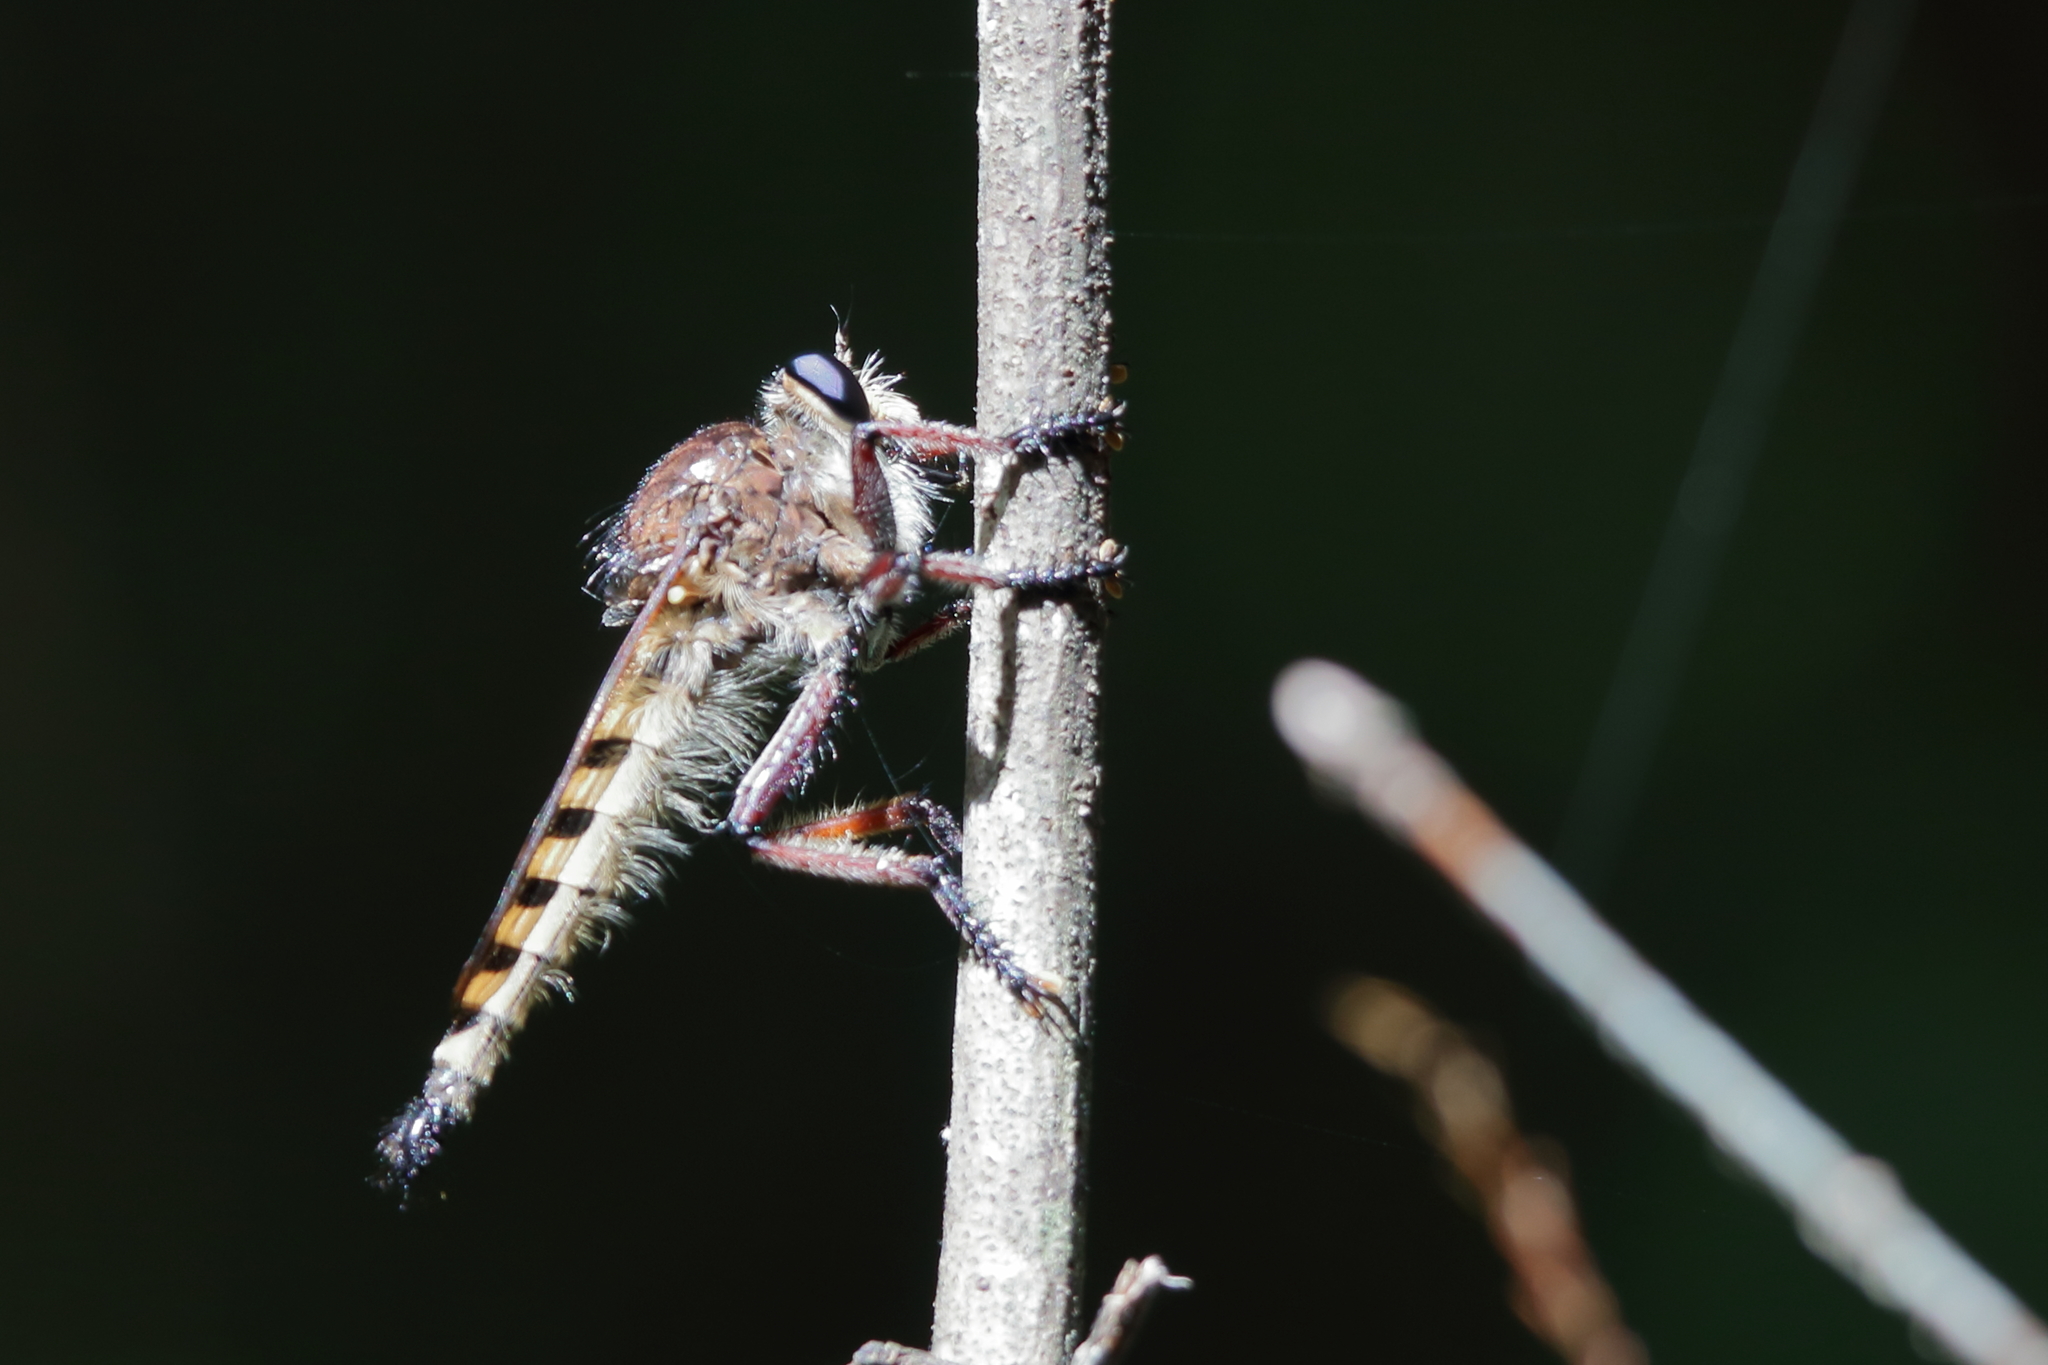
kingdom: Animalia
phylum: Arthropoda
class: Insecta
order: Diptera
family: Asilidae
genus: Promachus
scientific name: Promachus hinei
